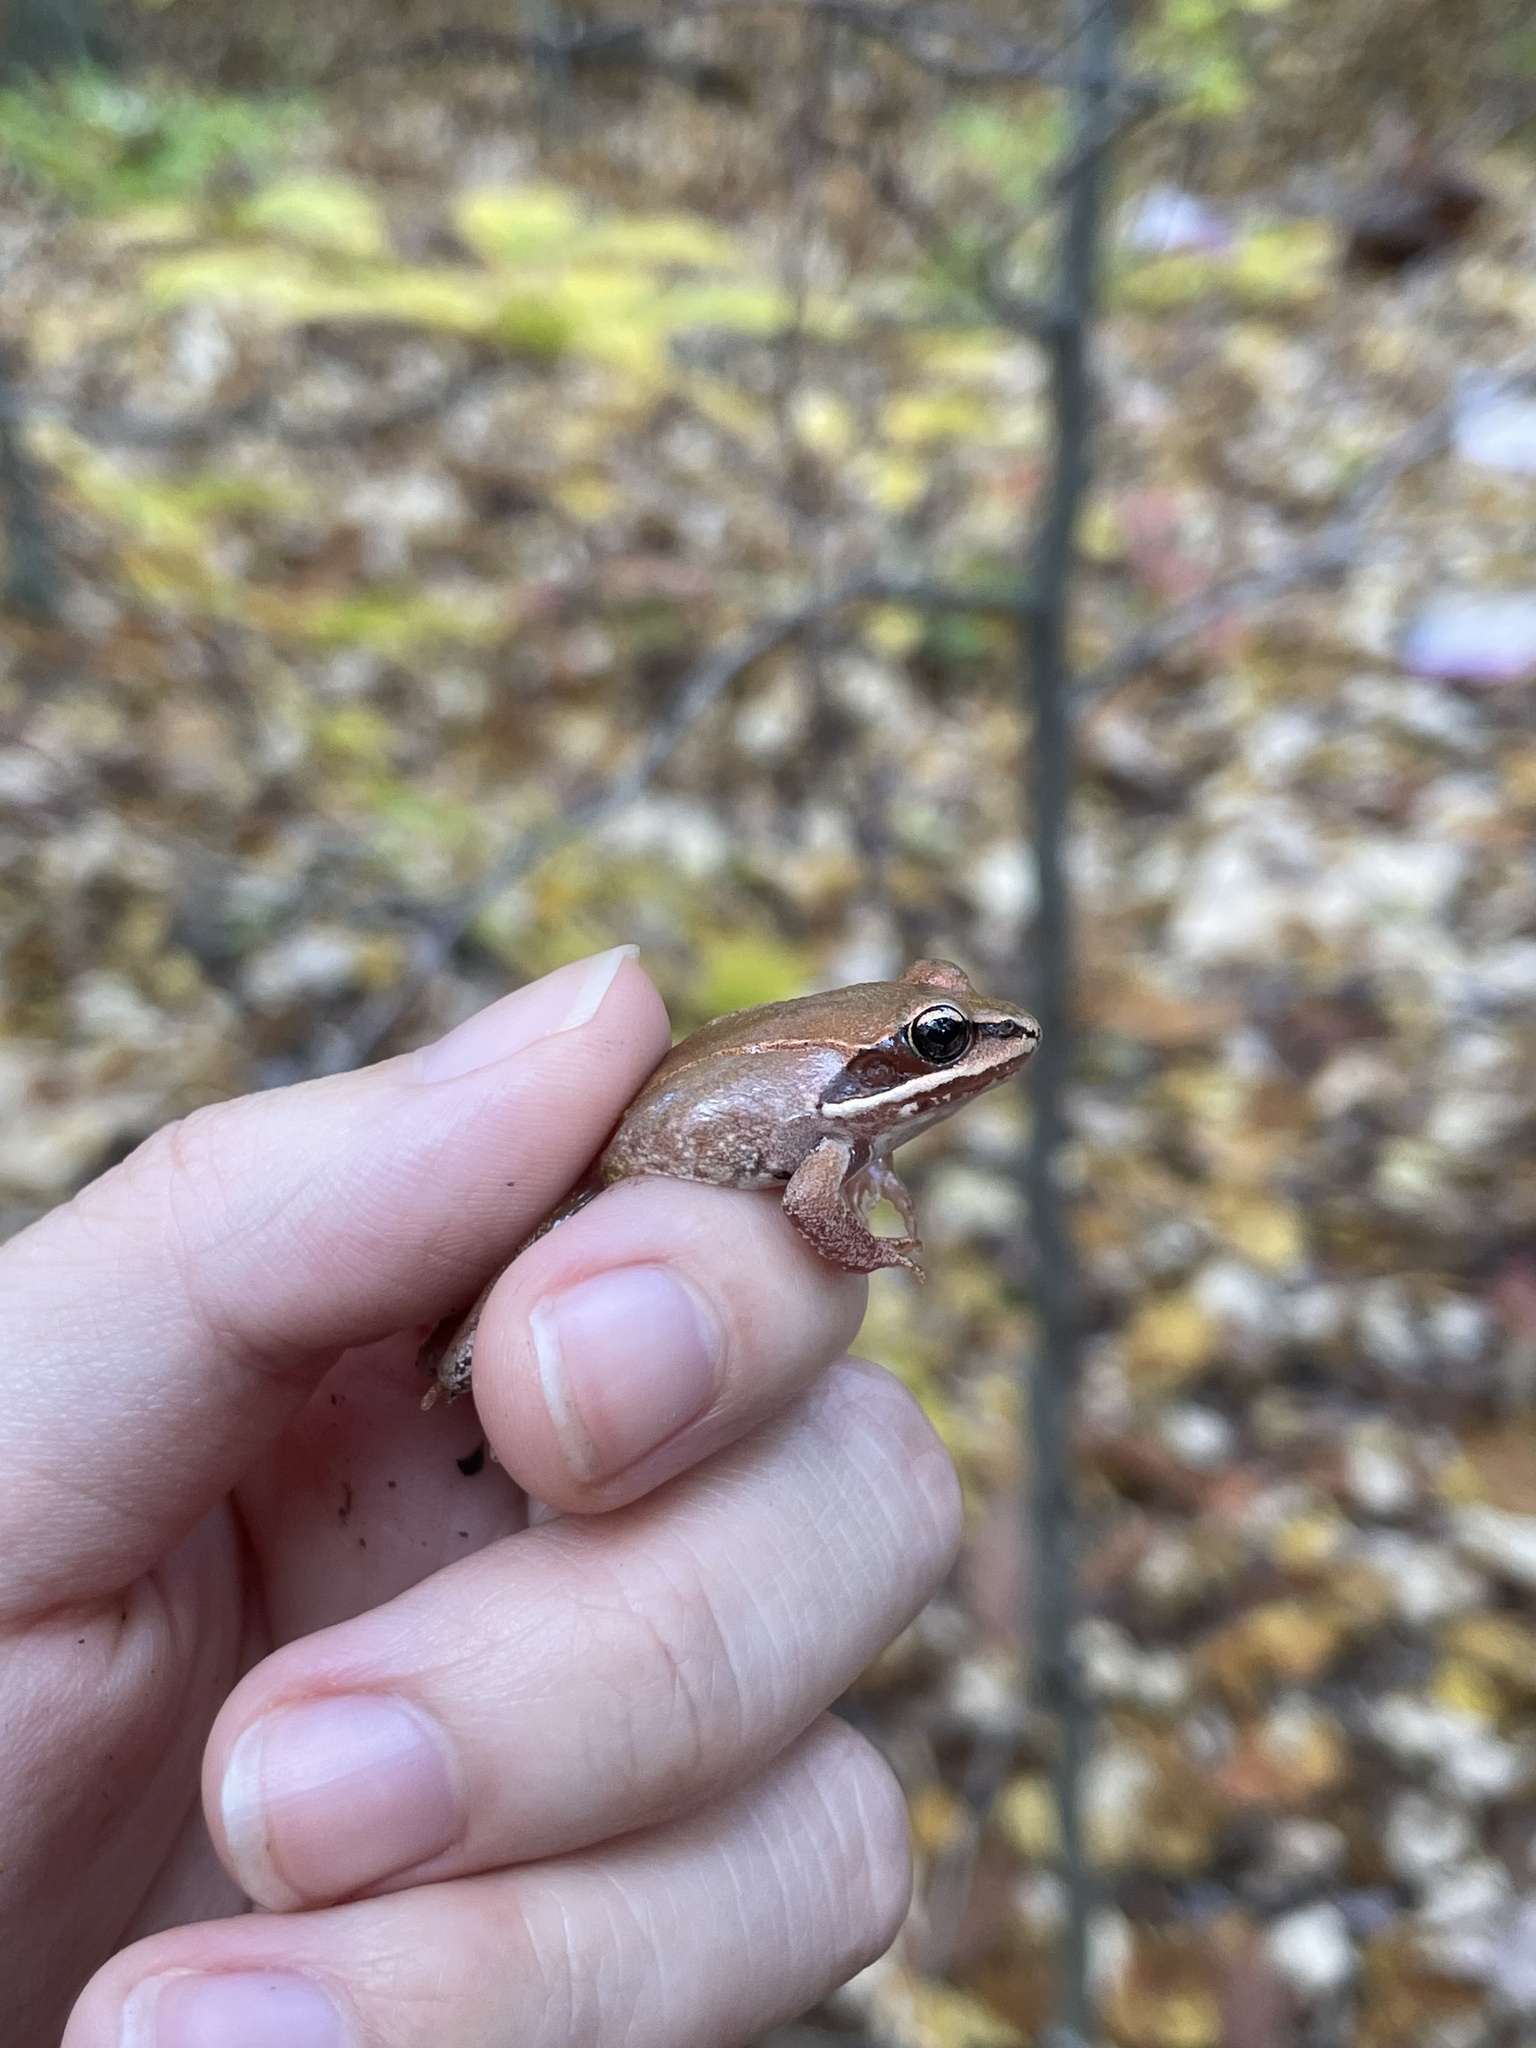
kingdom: Animalia
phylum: Chordata
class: Amphibia
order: Anura
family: Ranidae
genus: Lithobates
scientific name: Lithobates sylvaticus
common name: Wood frog
